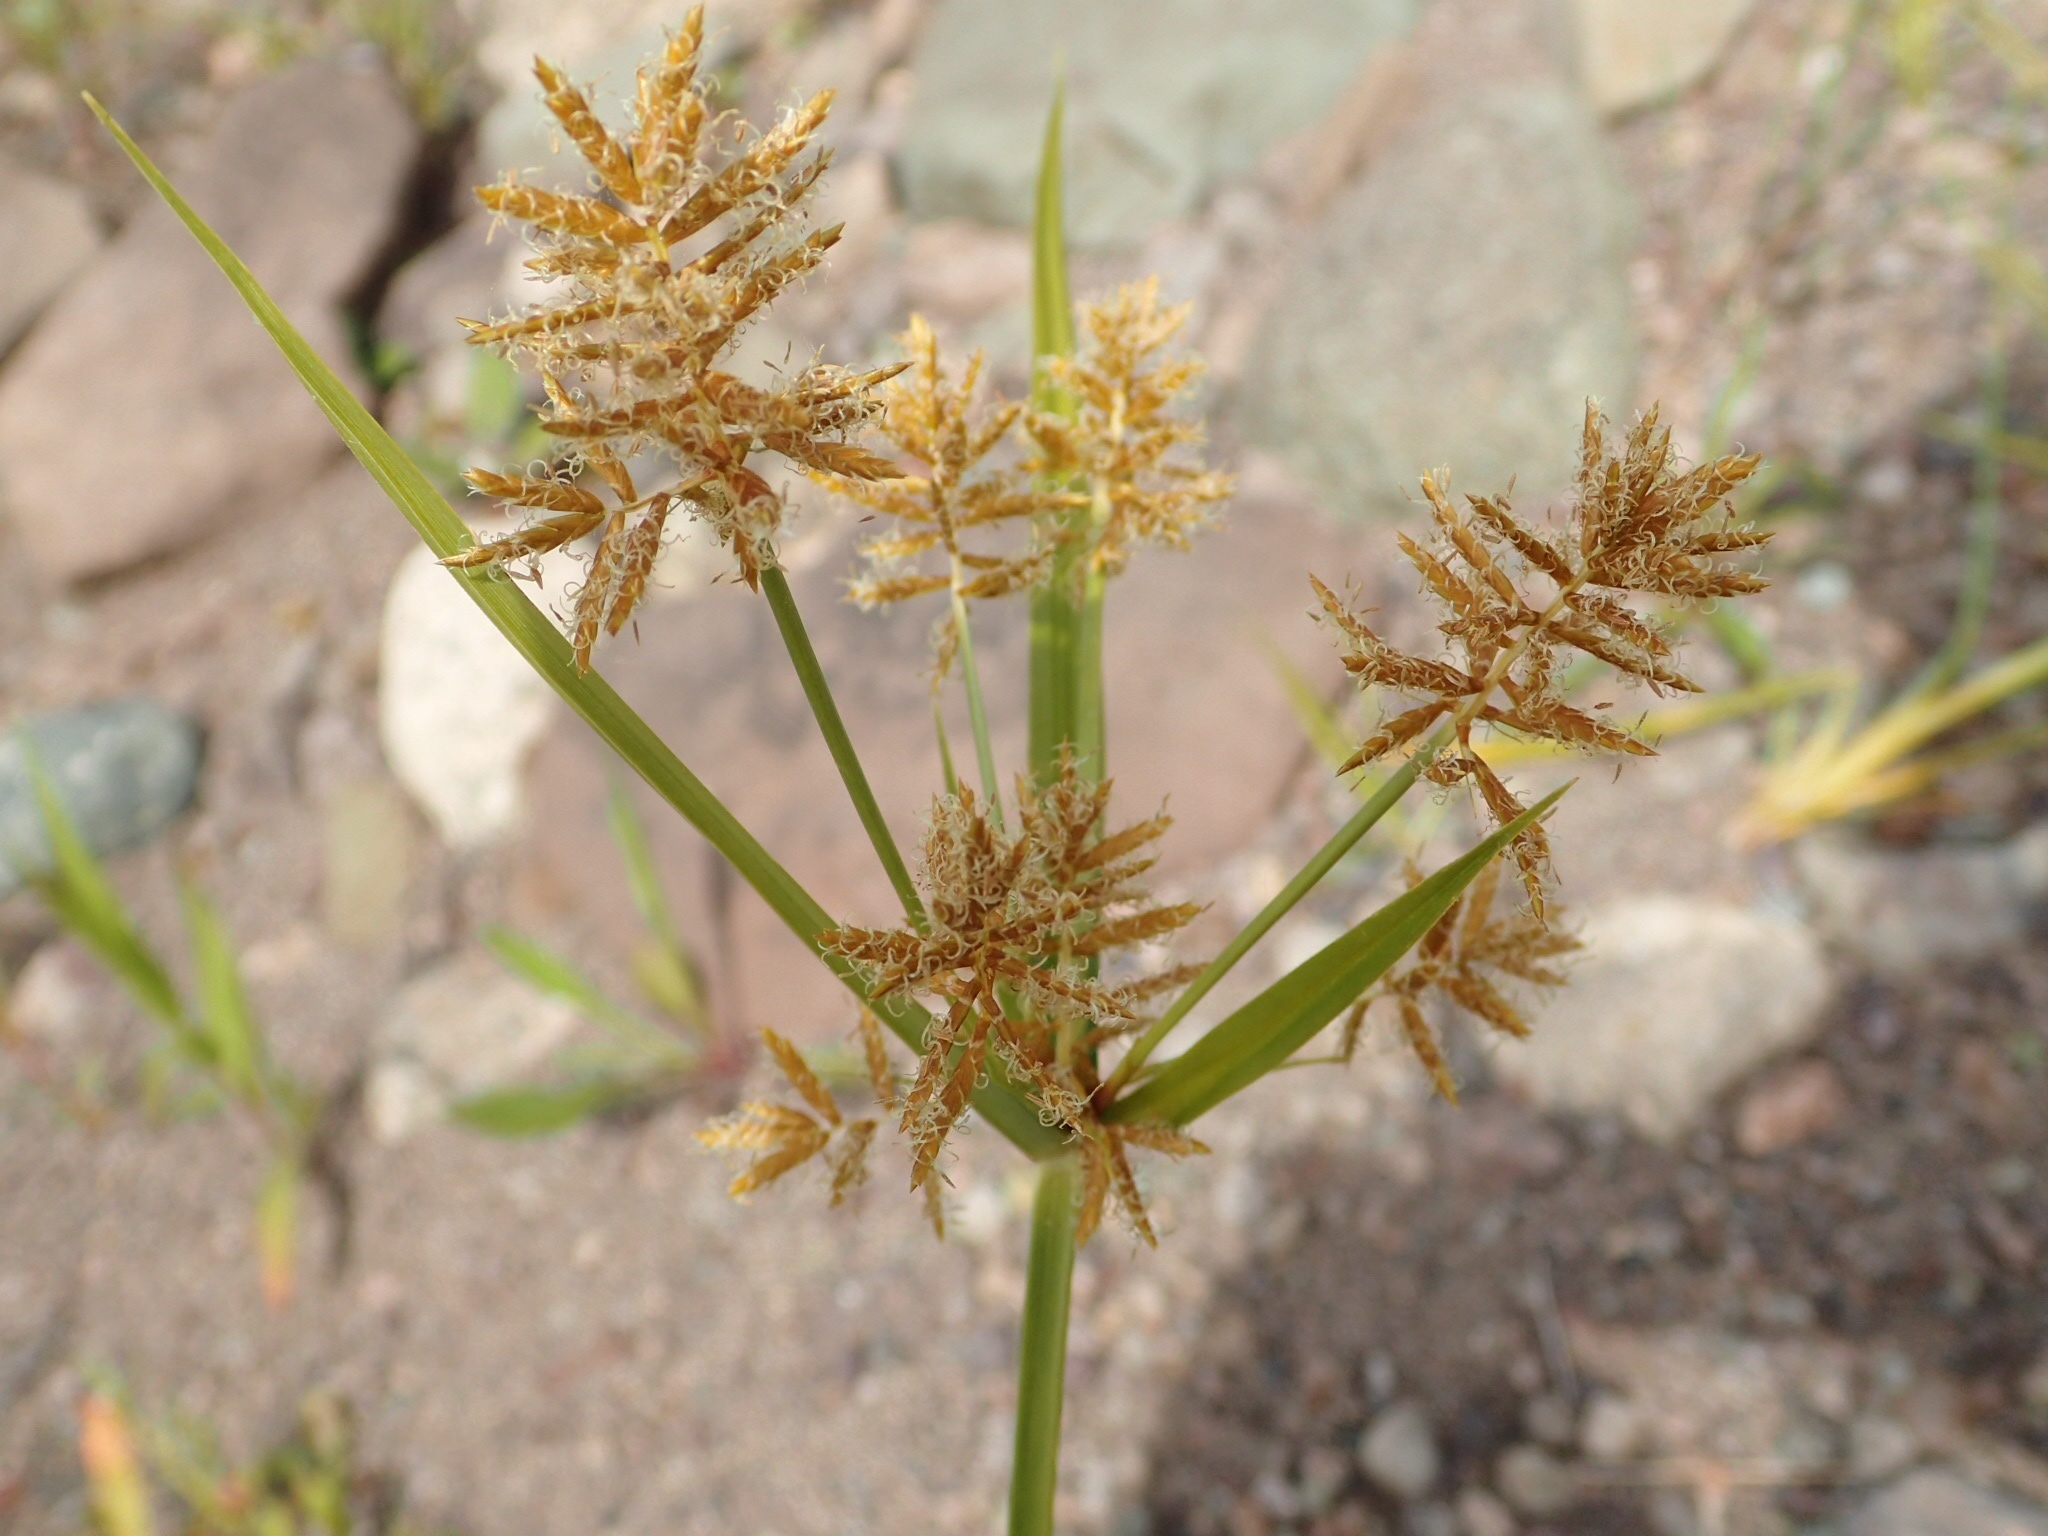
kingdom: Plantae
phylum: Tracheophyta
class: Liliopsida
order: Poales
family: Cyperaceae
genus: Cyperus
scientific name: Cyperus esculentus
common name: Yellow nutsedge
